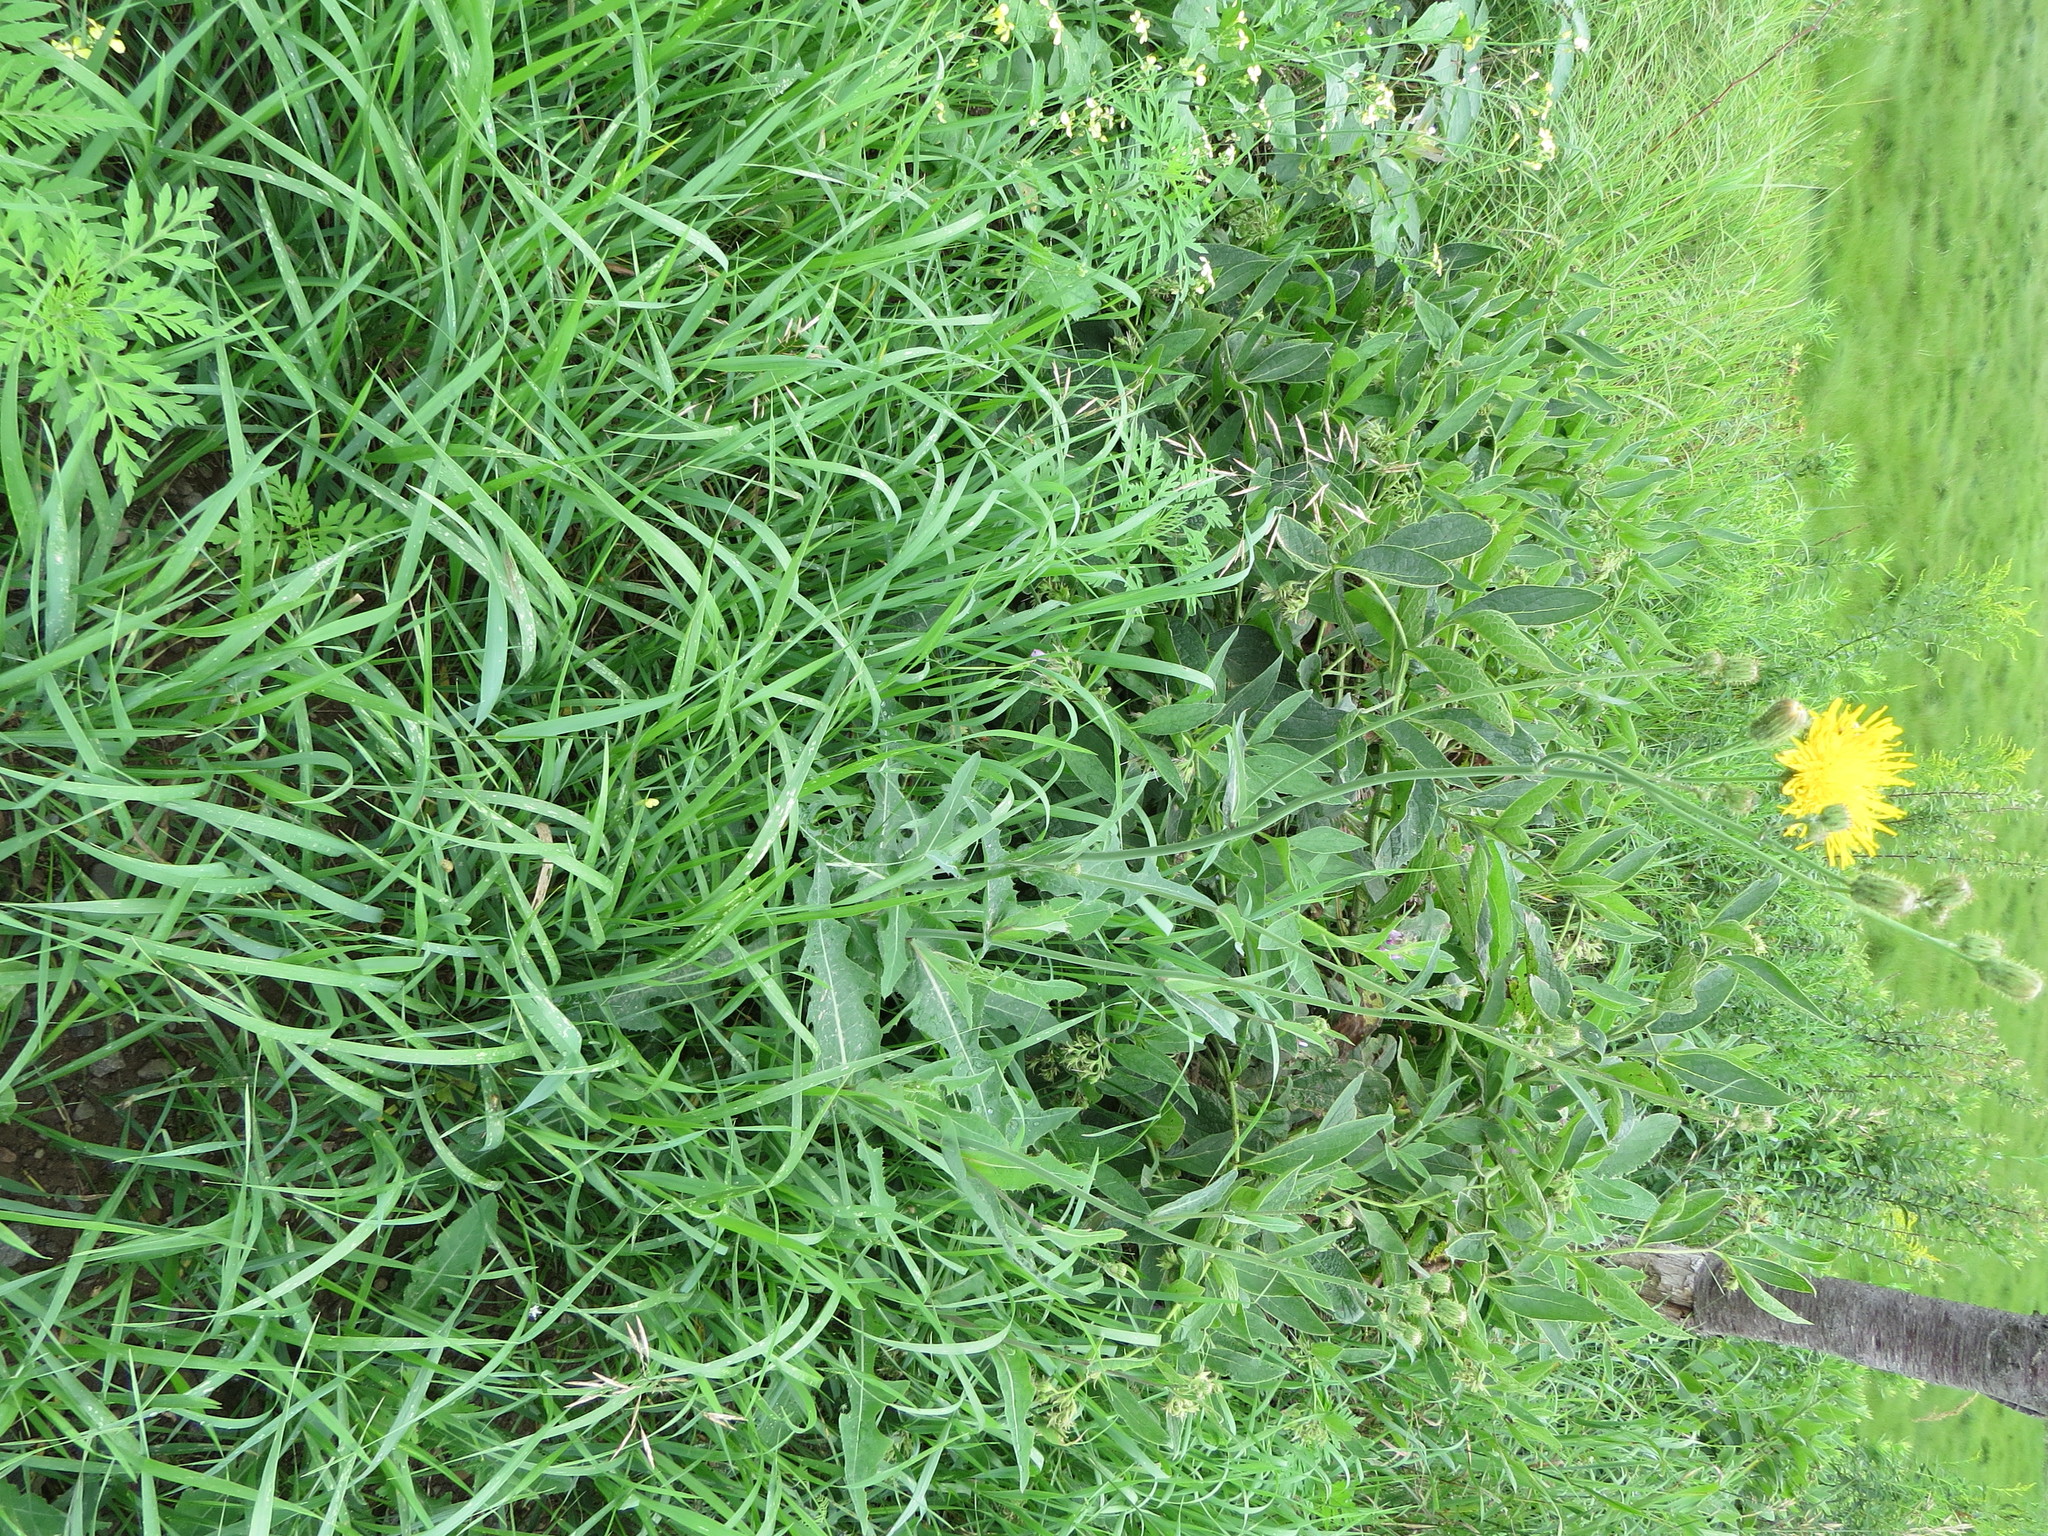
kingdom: Plantae
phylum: Tracheophyta
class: Magnoliopsida
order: Asterales
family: Asteraceae
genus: Sonchus
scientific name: Sonchus arvensis
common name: Perennial sow-thistle
